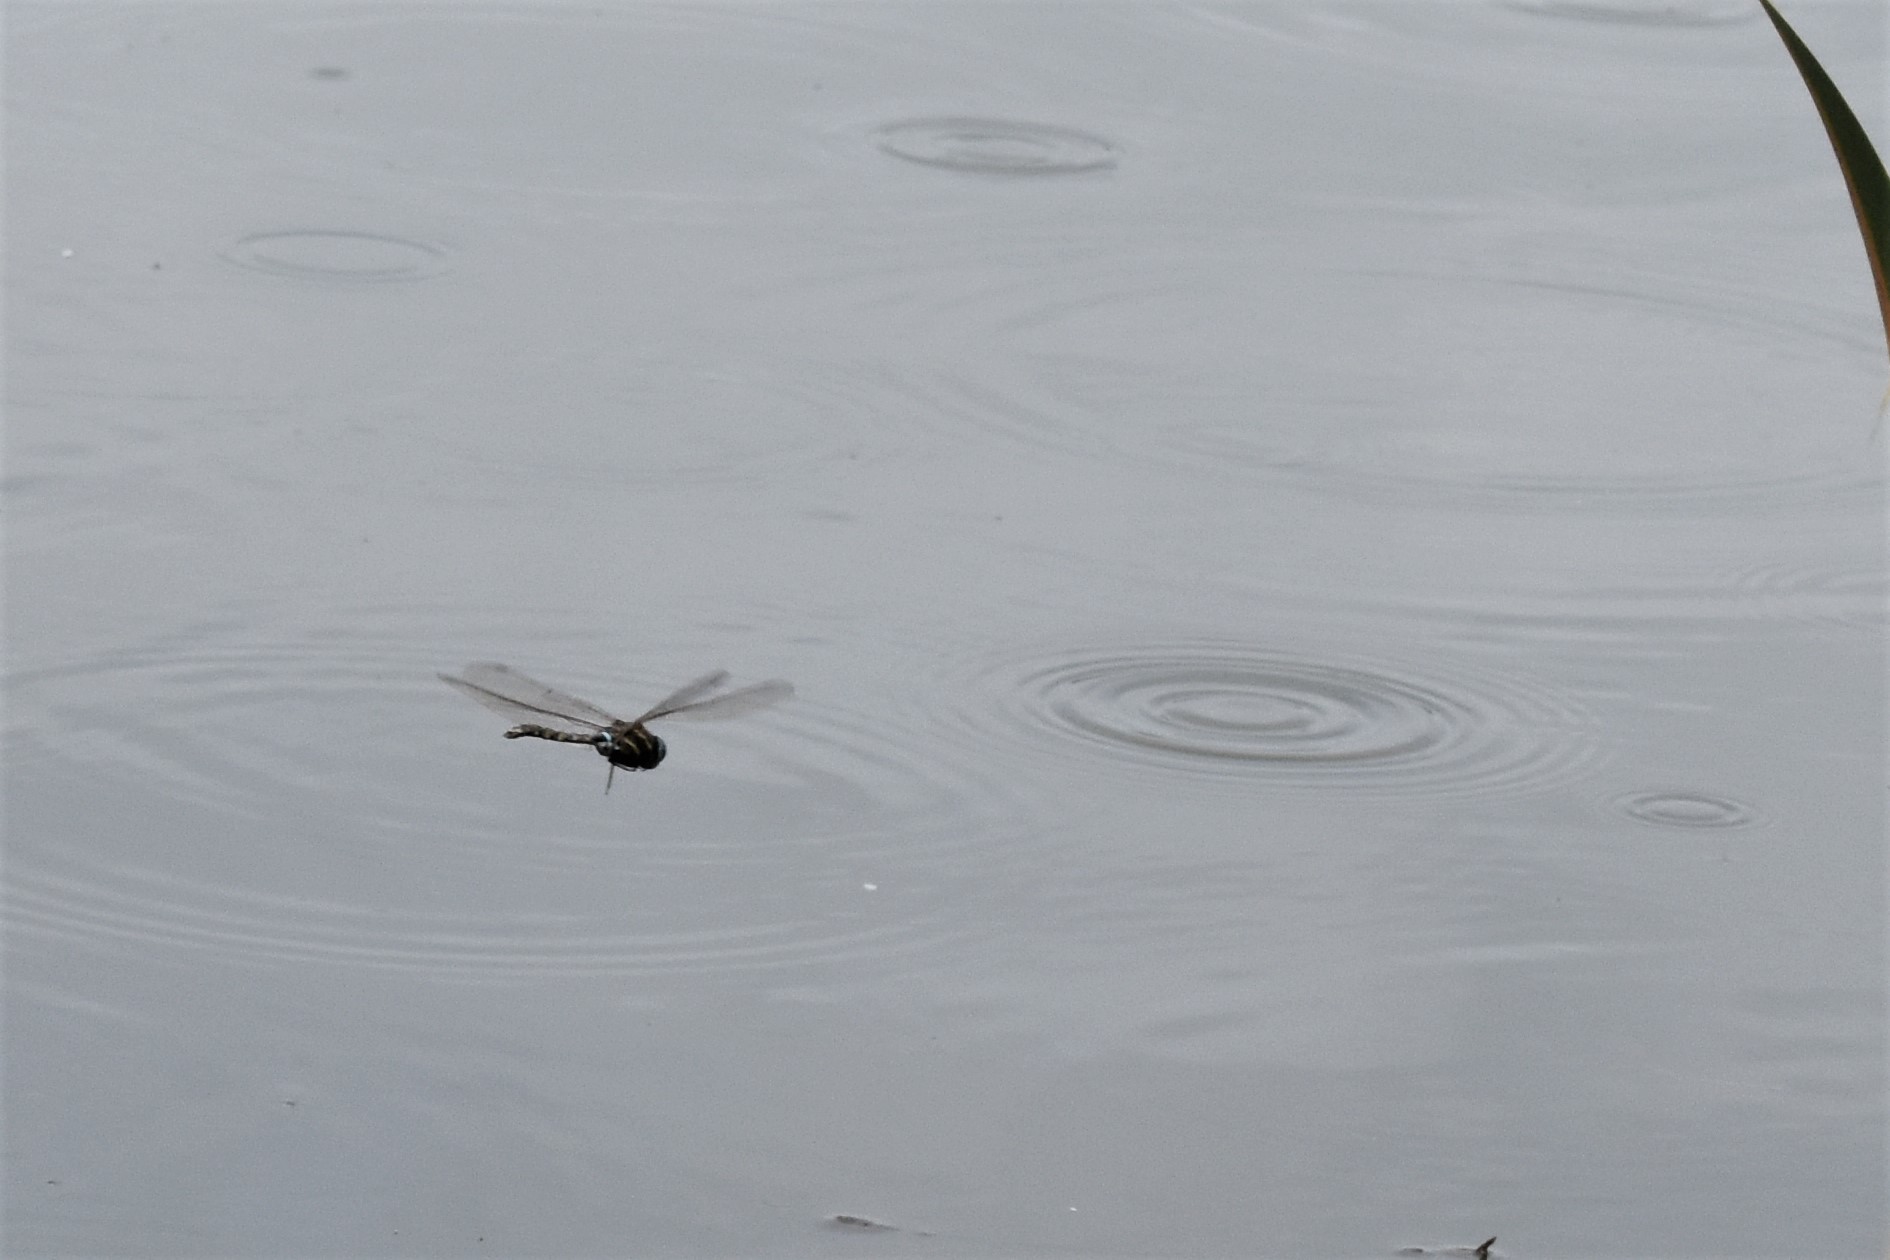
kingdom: Animalia
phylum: Arthropoda
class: Insecta
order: Odonata
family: Aeshnidae
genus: Aeshna
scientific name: Aeshna brevistyla
